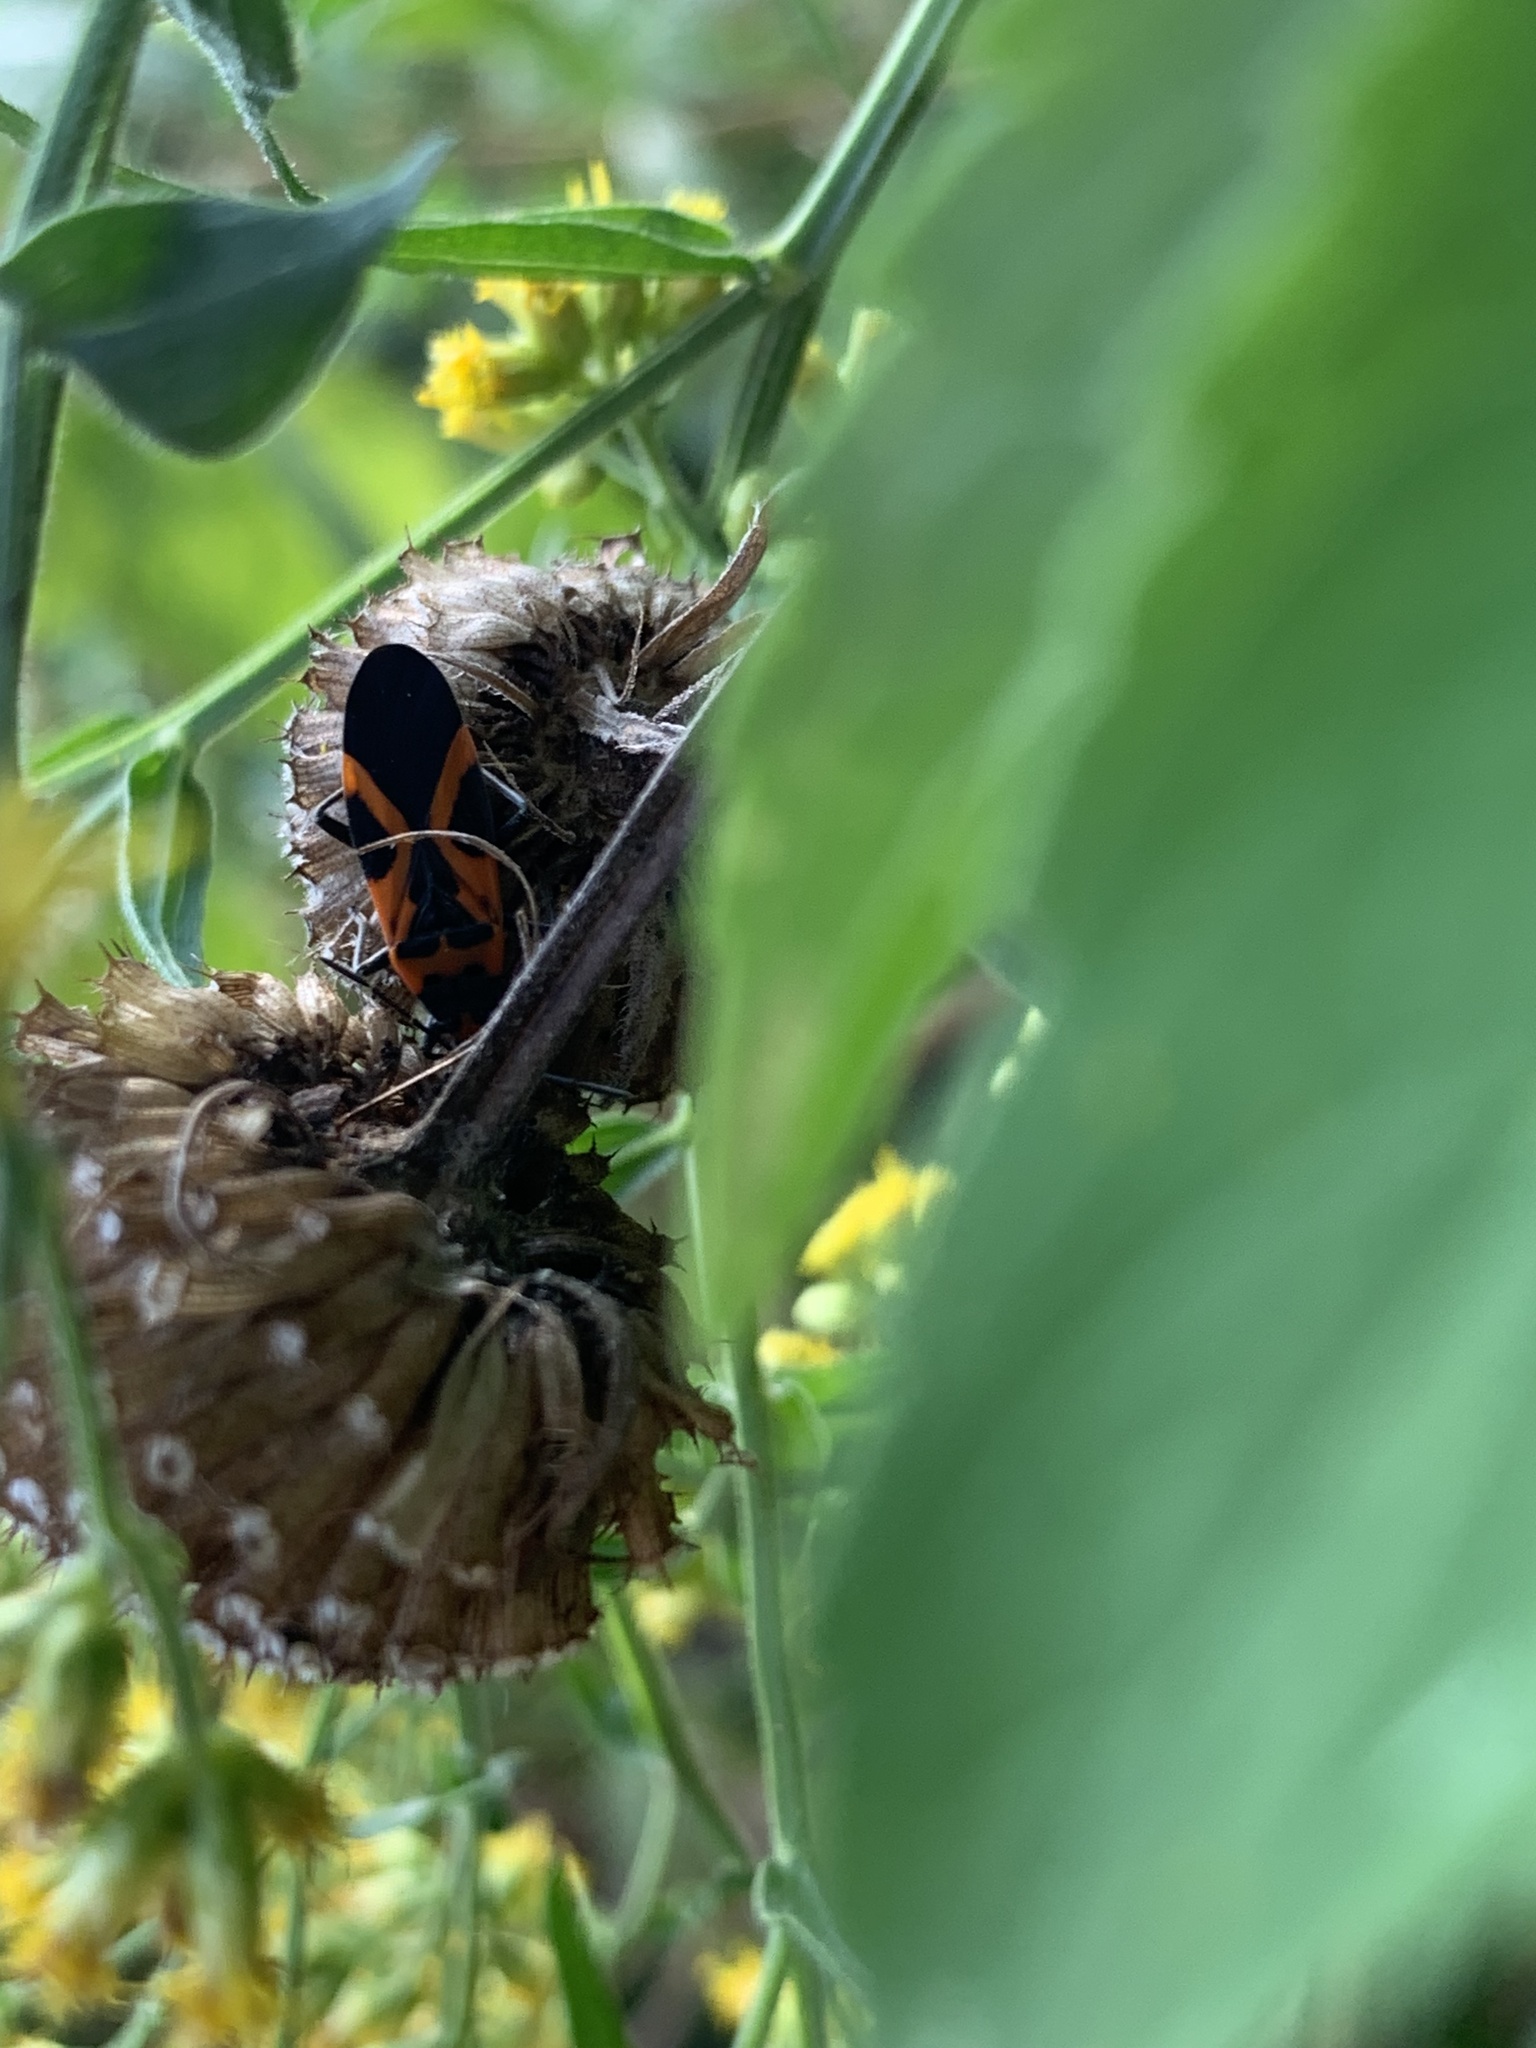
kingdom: Animalia
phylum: Arthropoda
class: Insecta
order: Hemiptera
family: Lygaeidae
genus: Lygaeus
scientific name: Lygaeus turcicus
